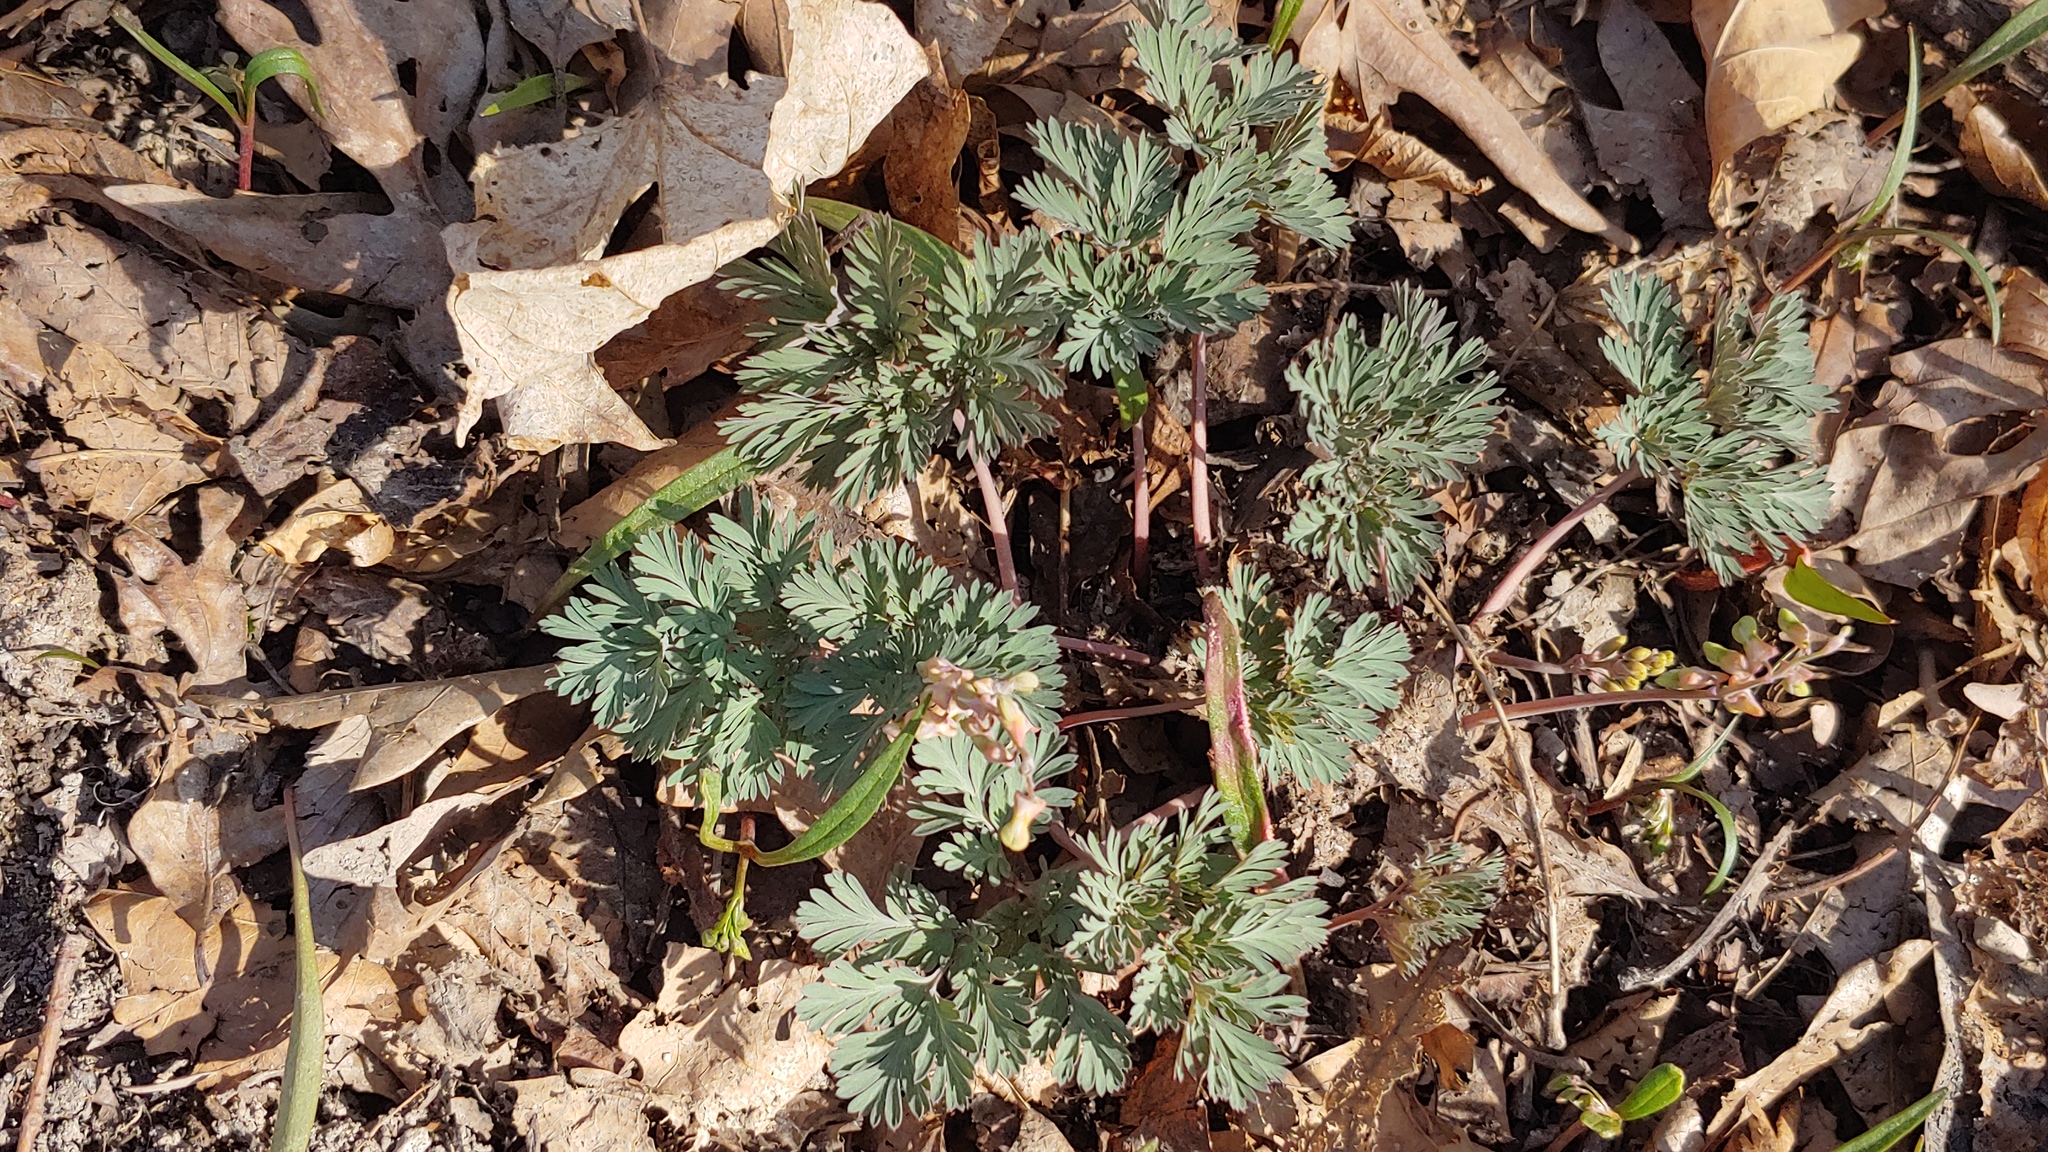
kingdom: Plantae
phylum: Tracheophyta
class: Magnoliopsida
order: Ranunculales
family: Papaveraceae
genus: Dicentra
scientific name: Dicentra cucullaria
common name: Dutchman's breeches
